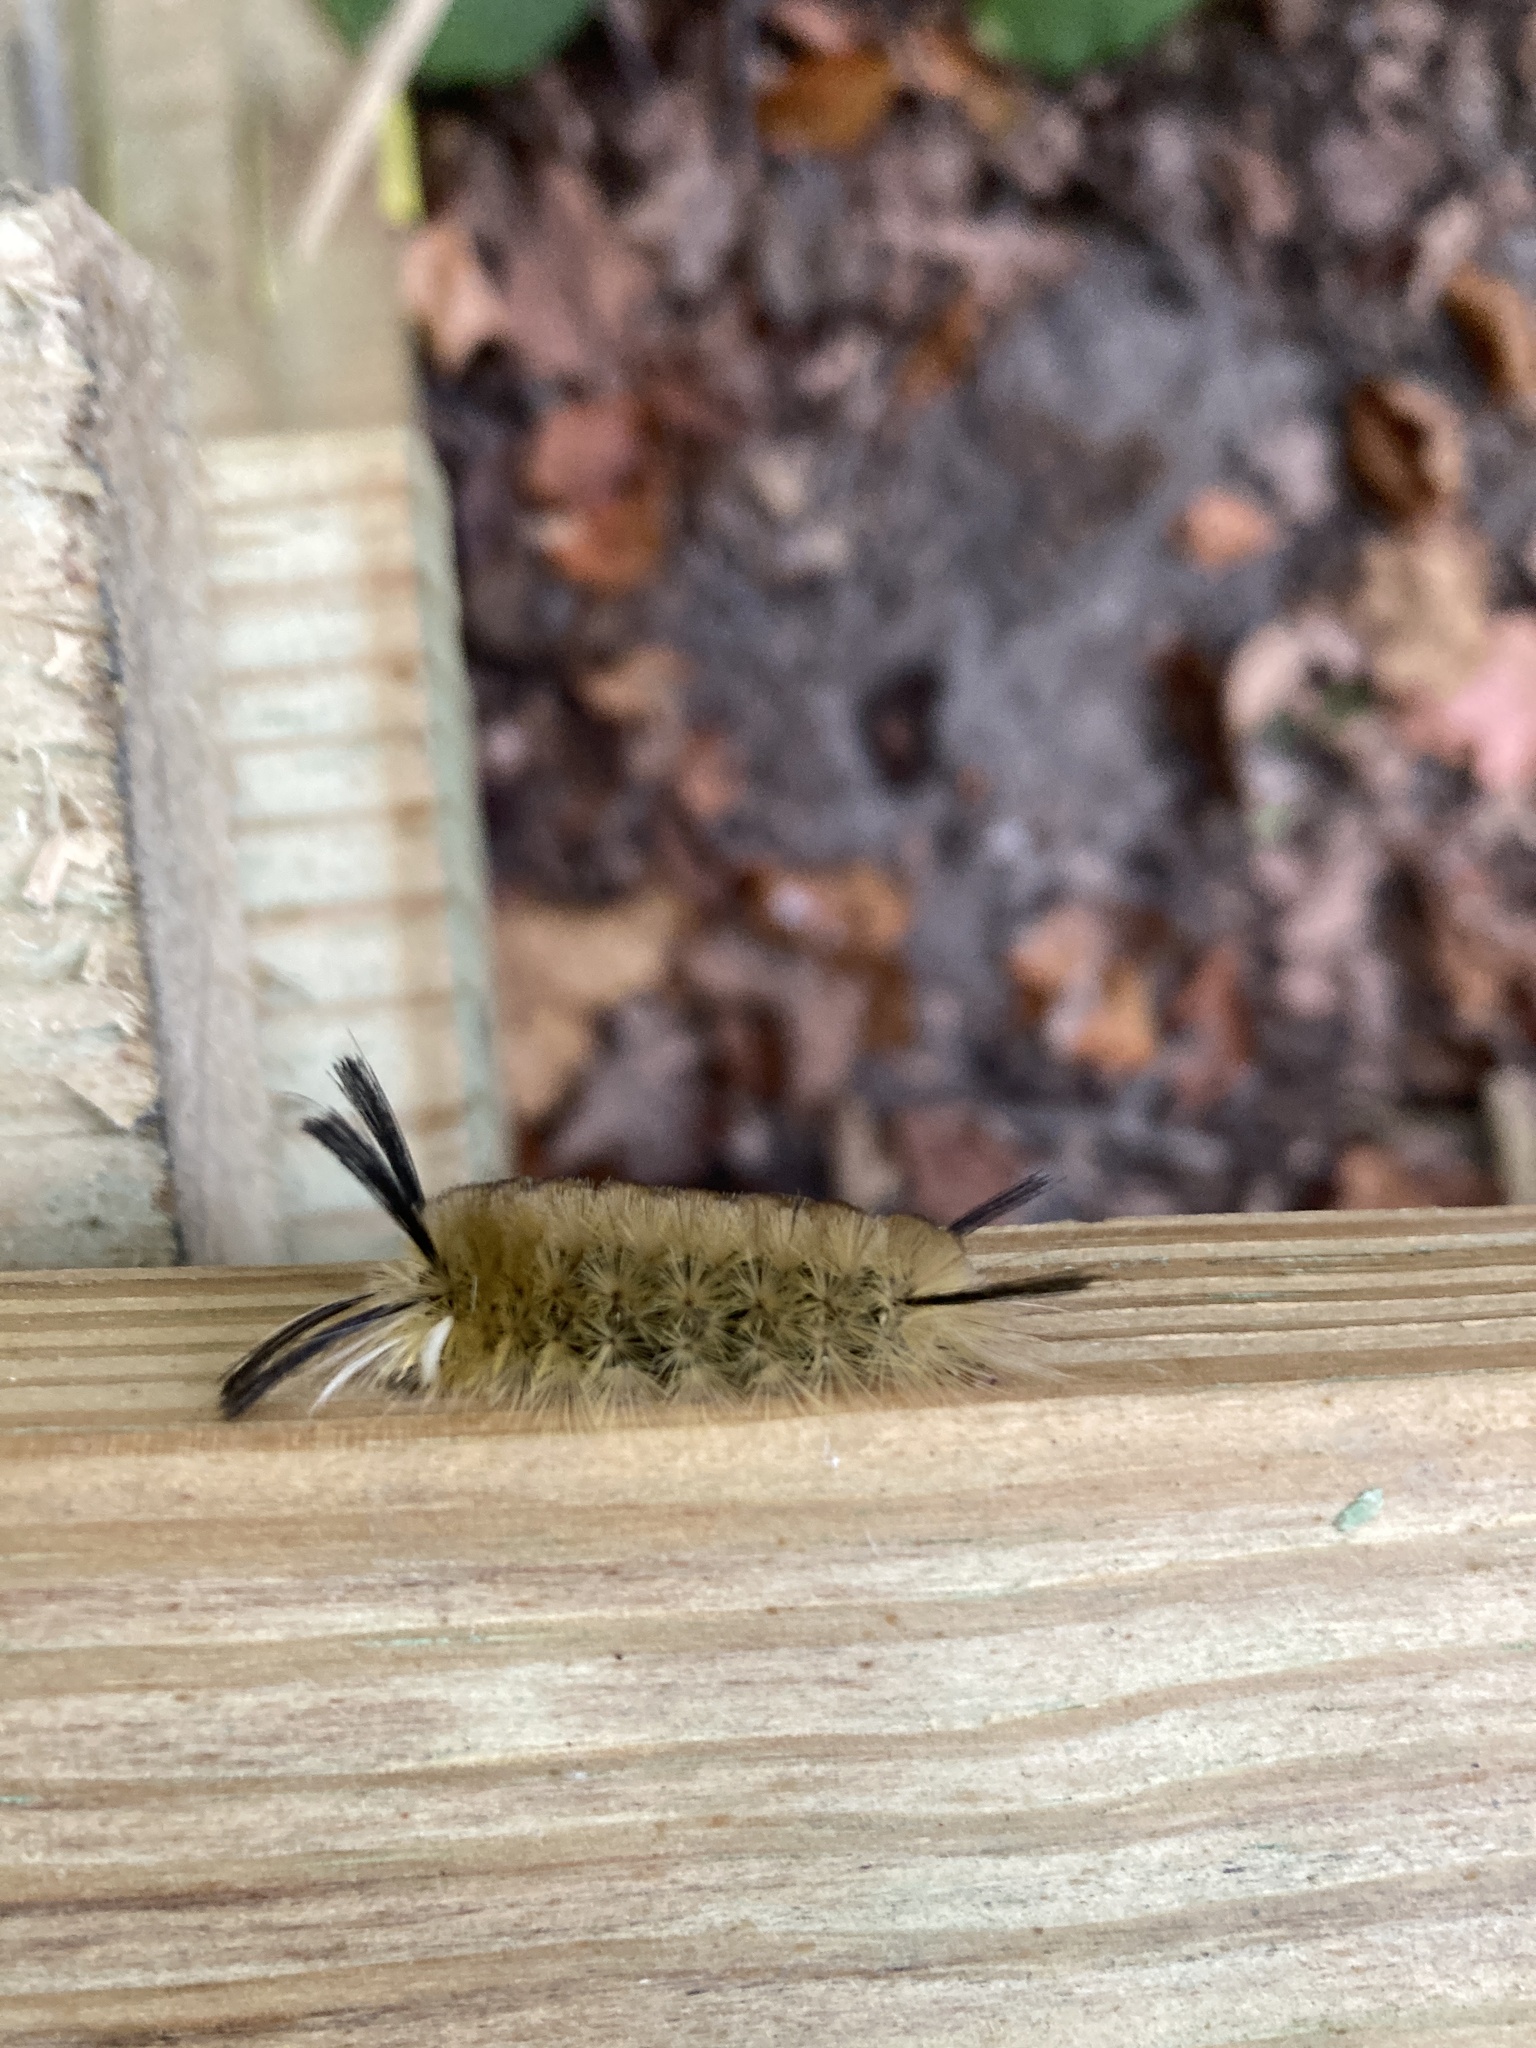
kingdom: Animalia
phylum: Arthropoda
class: Insecta
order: Lepidoptera
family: Erebidae
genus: Halysidota
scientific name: Halysidota tessellaris
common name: Banded tussock moth
